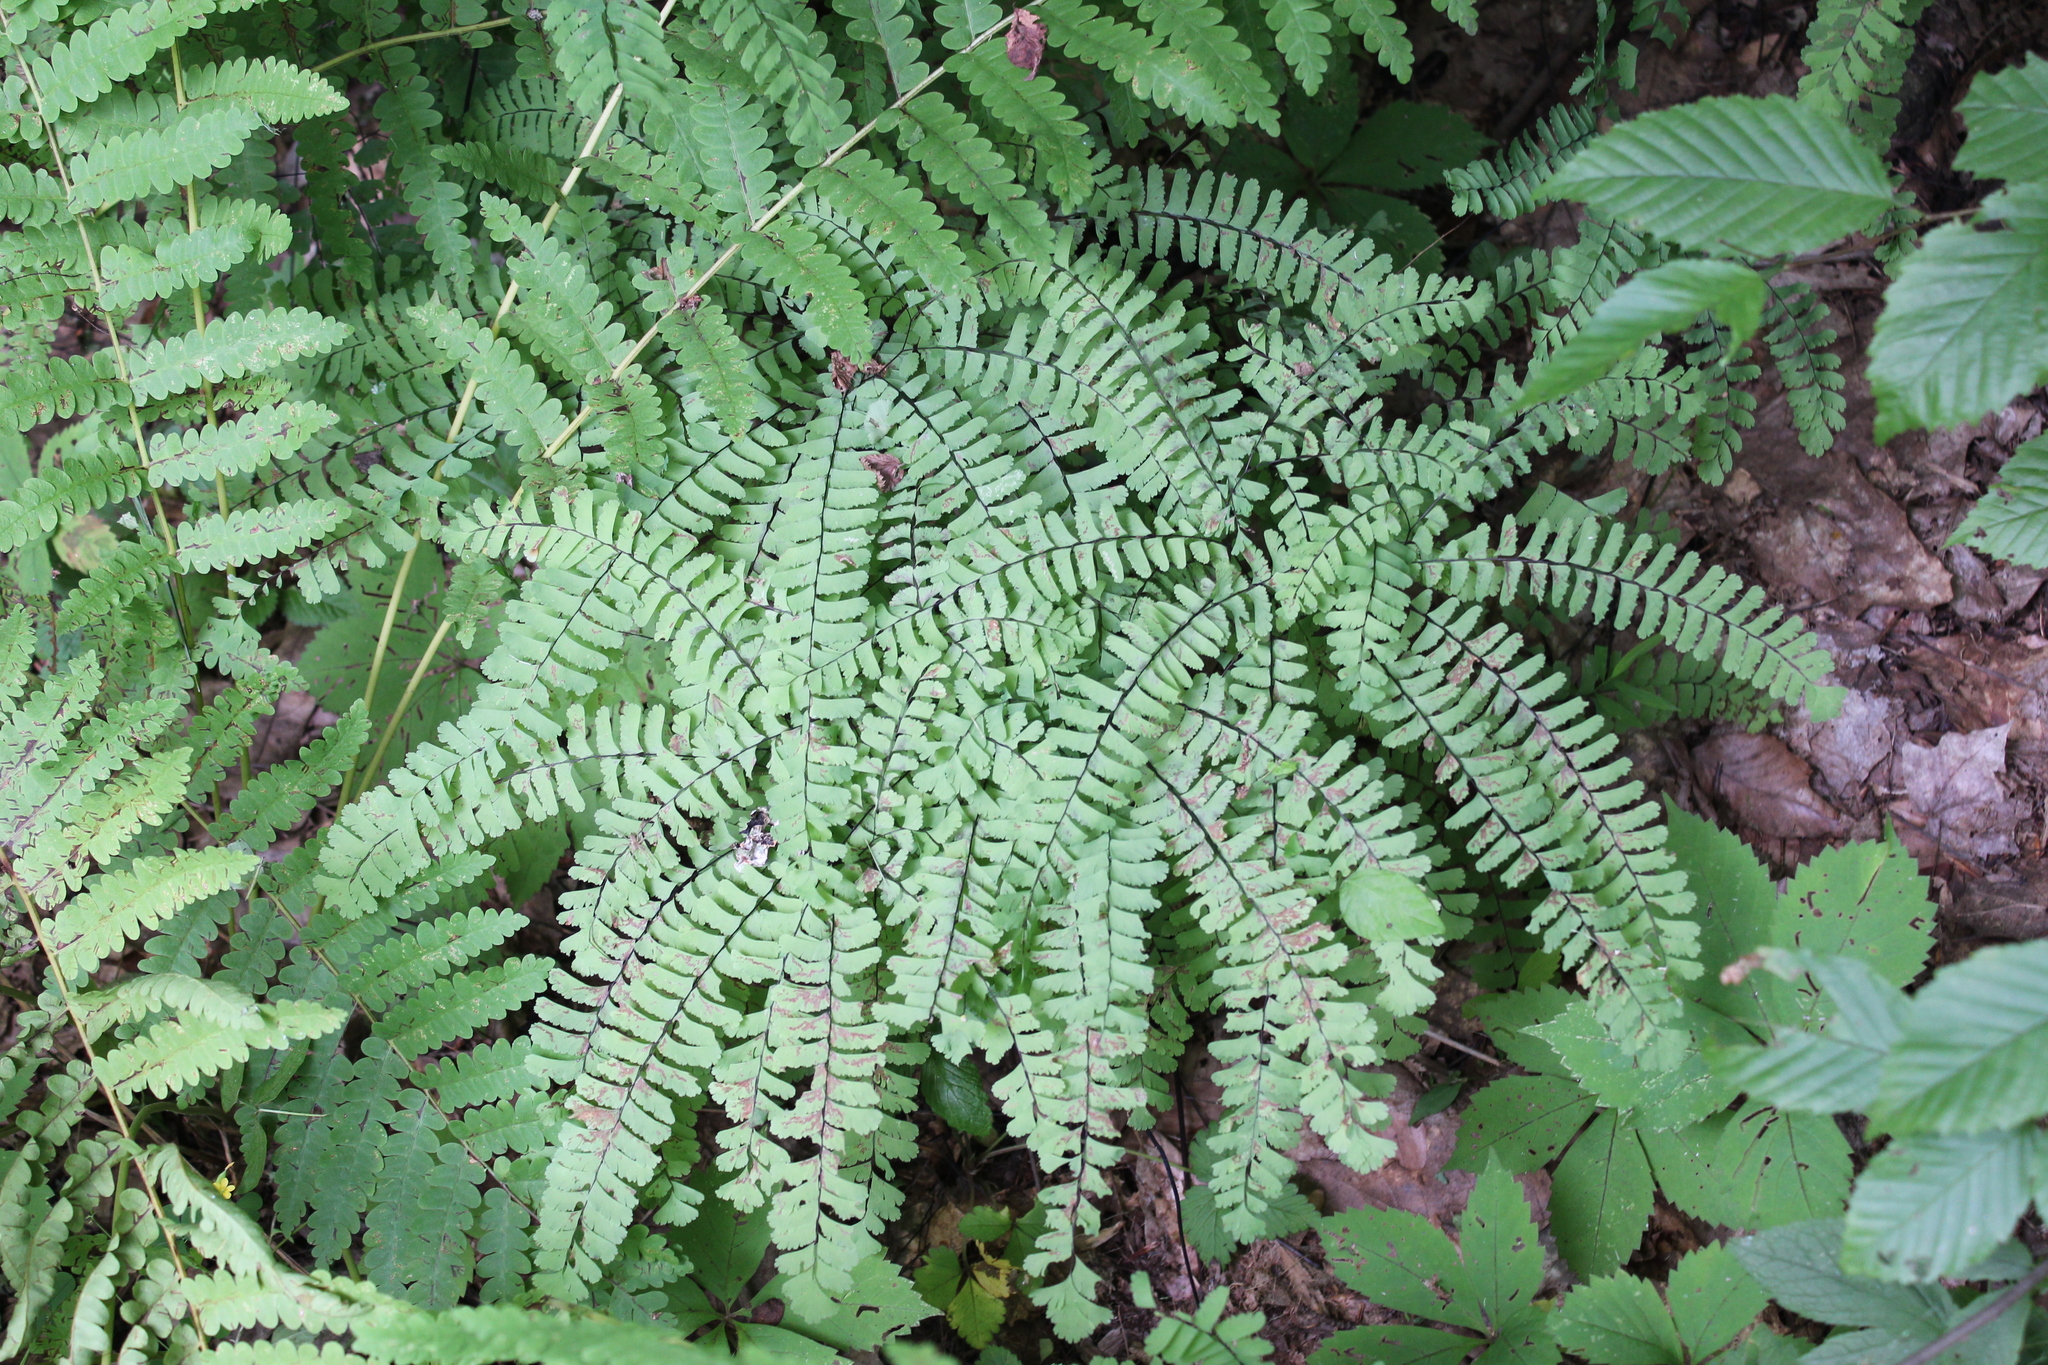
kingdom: Plantae
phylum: Tracheophyta
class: Polypodiopsida
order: Polypodiales
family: Pteridaceae
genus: Adiantum
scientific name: Adiantum pedatum
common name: Five-finger fern
